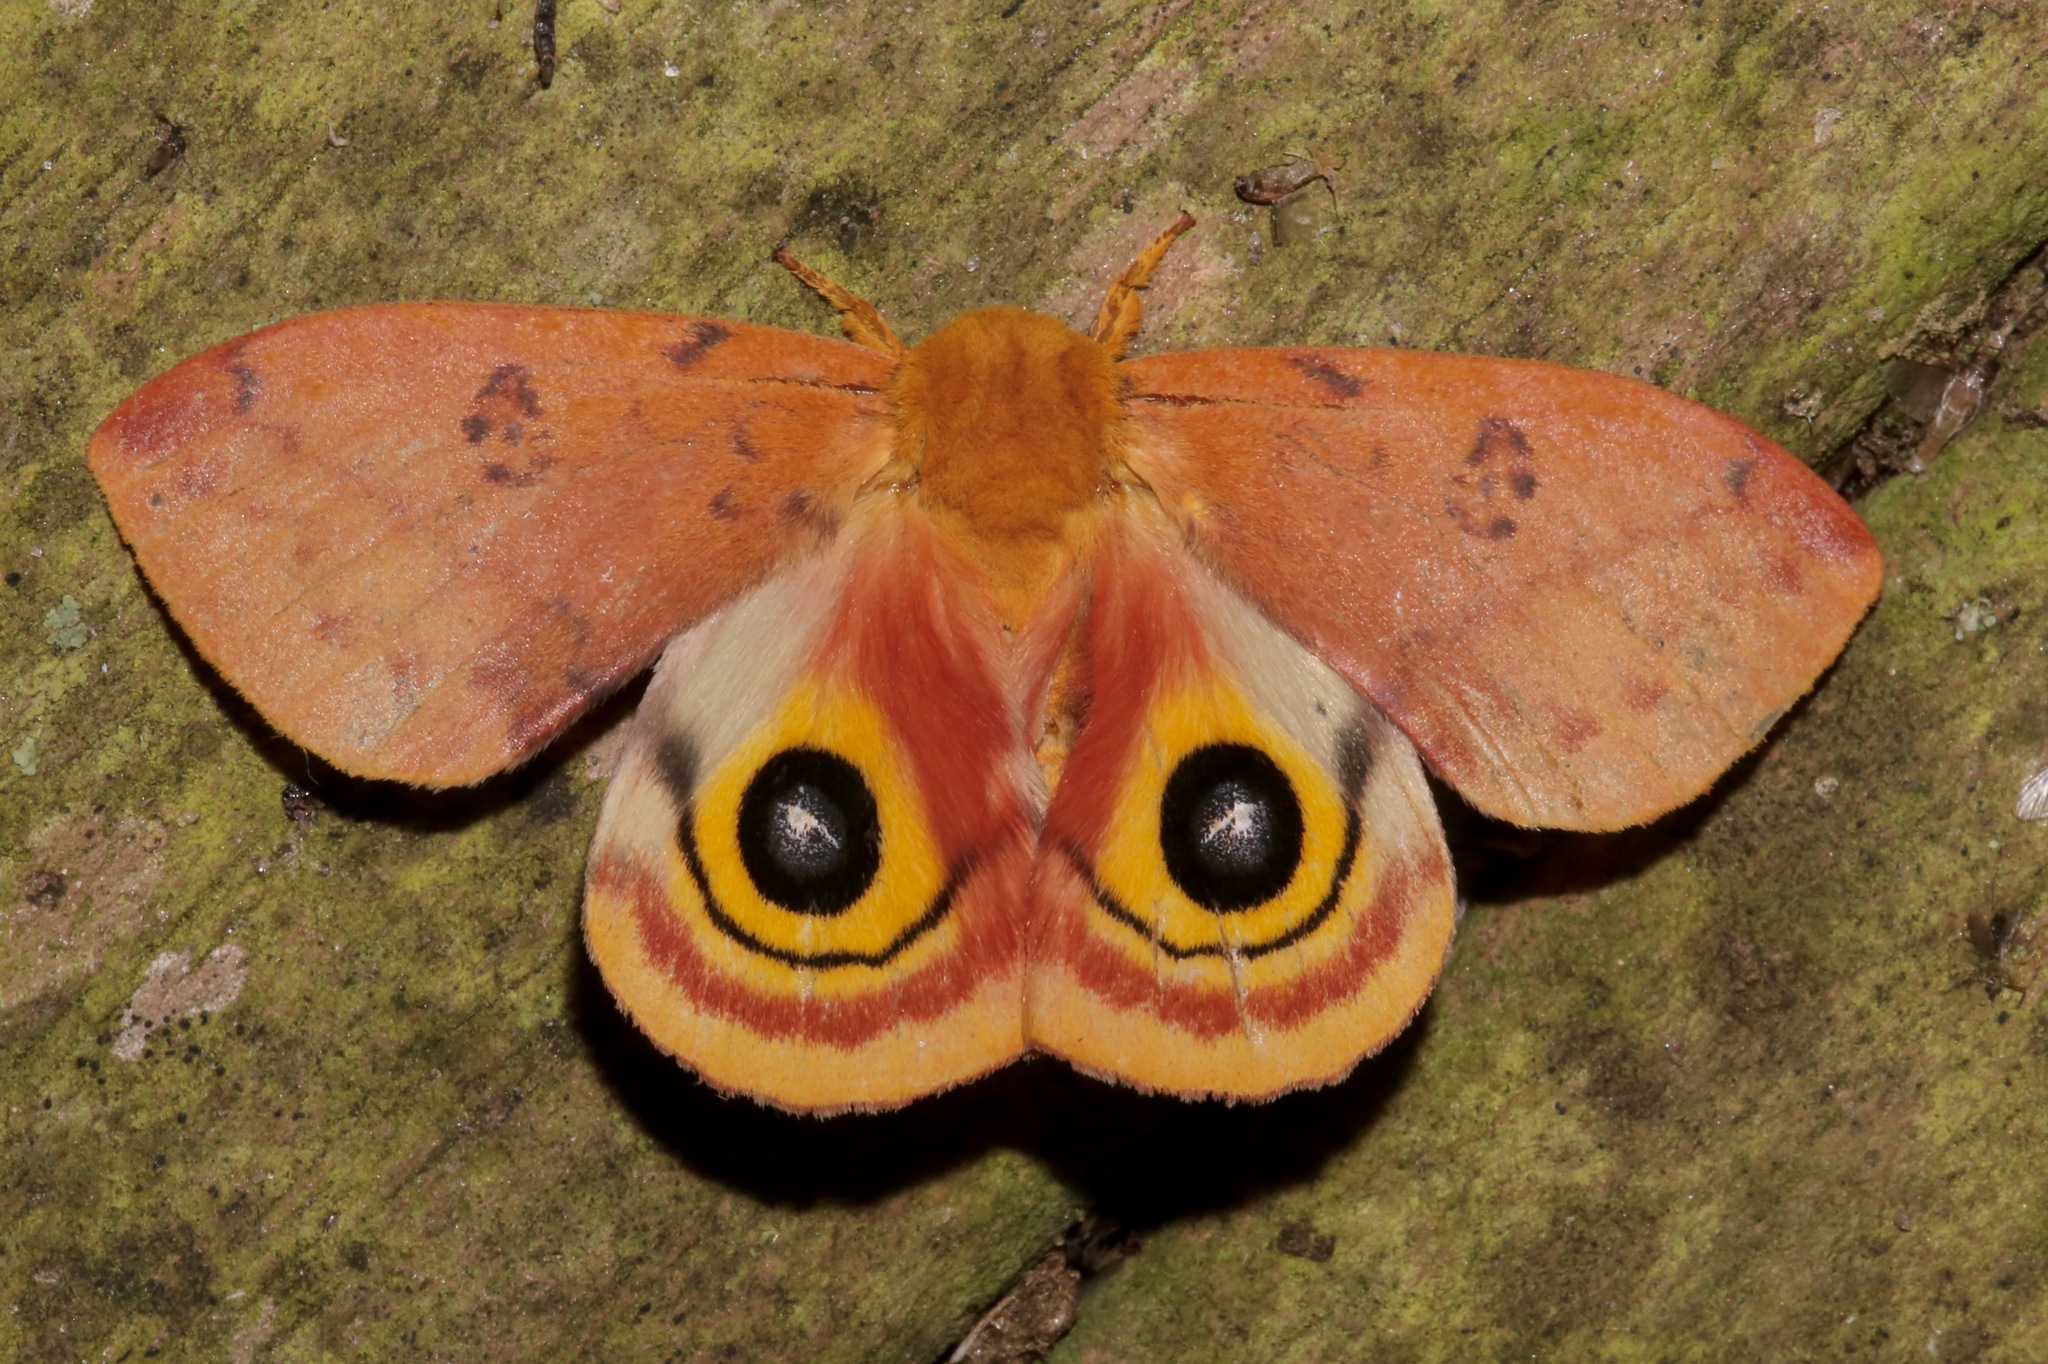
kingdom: Animalia
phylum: Arthropoda
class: Insecta
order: Lepidoptera
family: Saturniidae
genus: Automeris
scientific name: Automeris io
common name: Io moth
